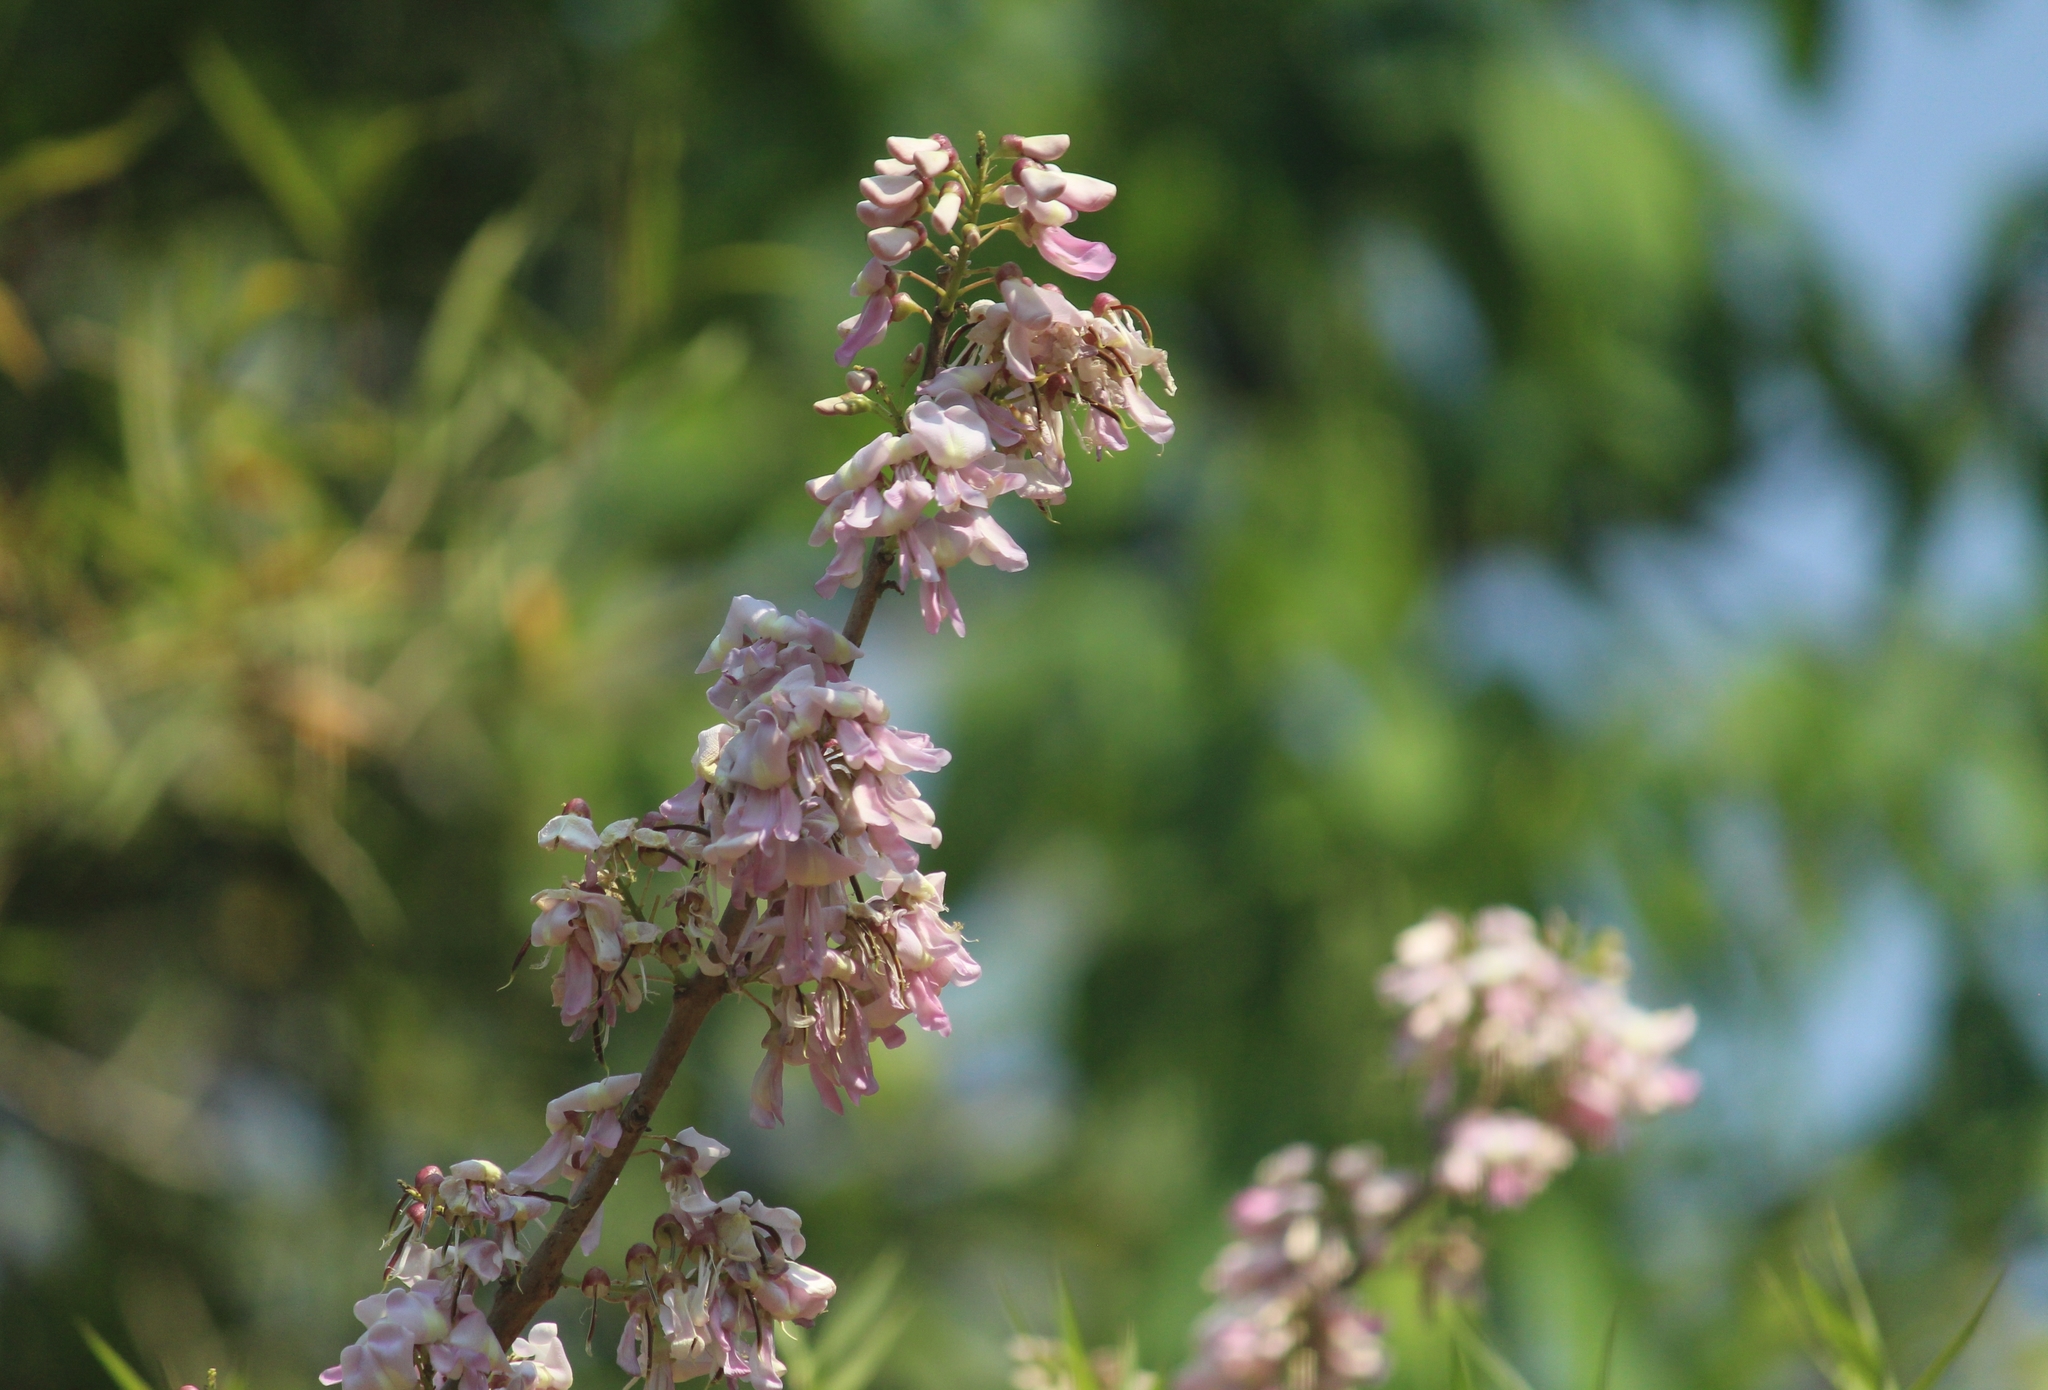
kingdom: Plantae
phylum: Tracheophyta
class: Magnoliopsida
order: Fabales
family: Fabaceae
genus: Gliricidia
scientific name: Gliricidia sepium
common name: Quickstick
